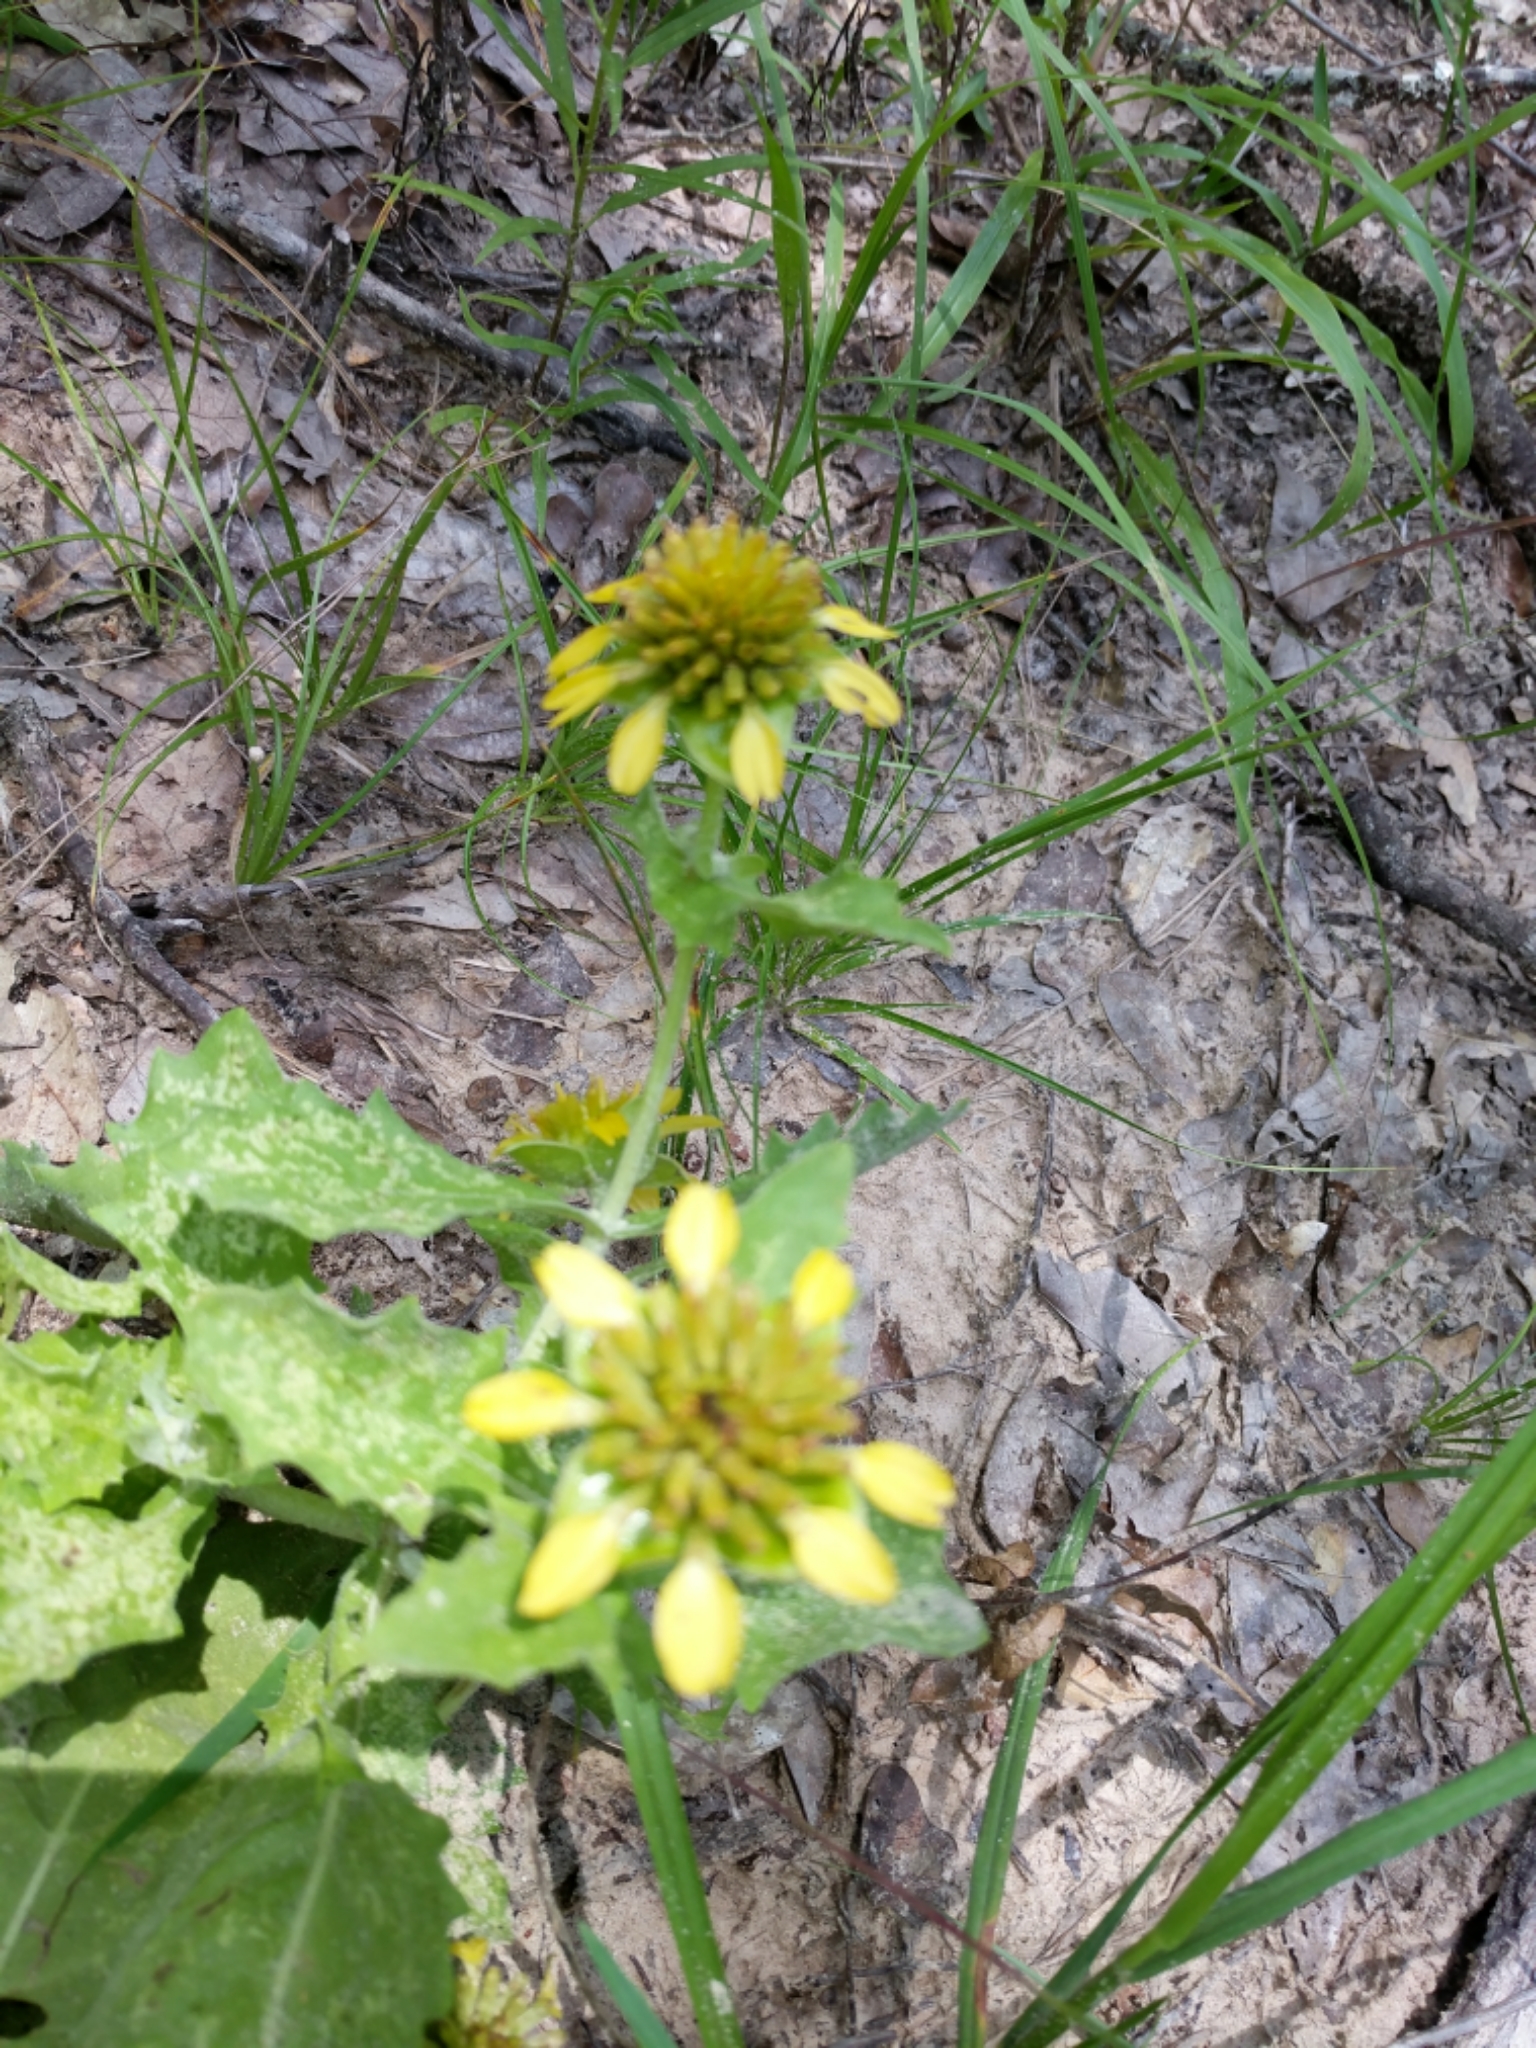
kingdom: Plantae
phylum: Tracheophyta
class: Magnoliopsida
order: Asterales
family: Asteraceae
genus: Tetragonotheca
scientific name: Tetragonotheca ludoviciana
